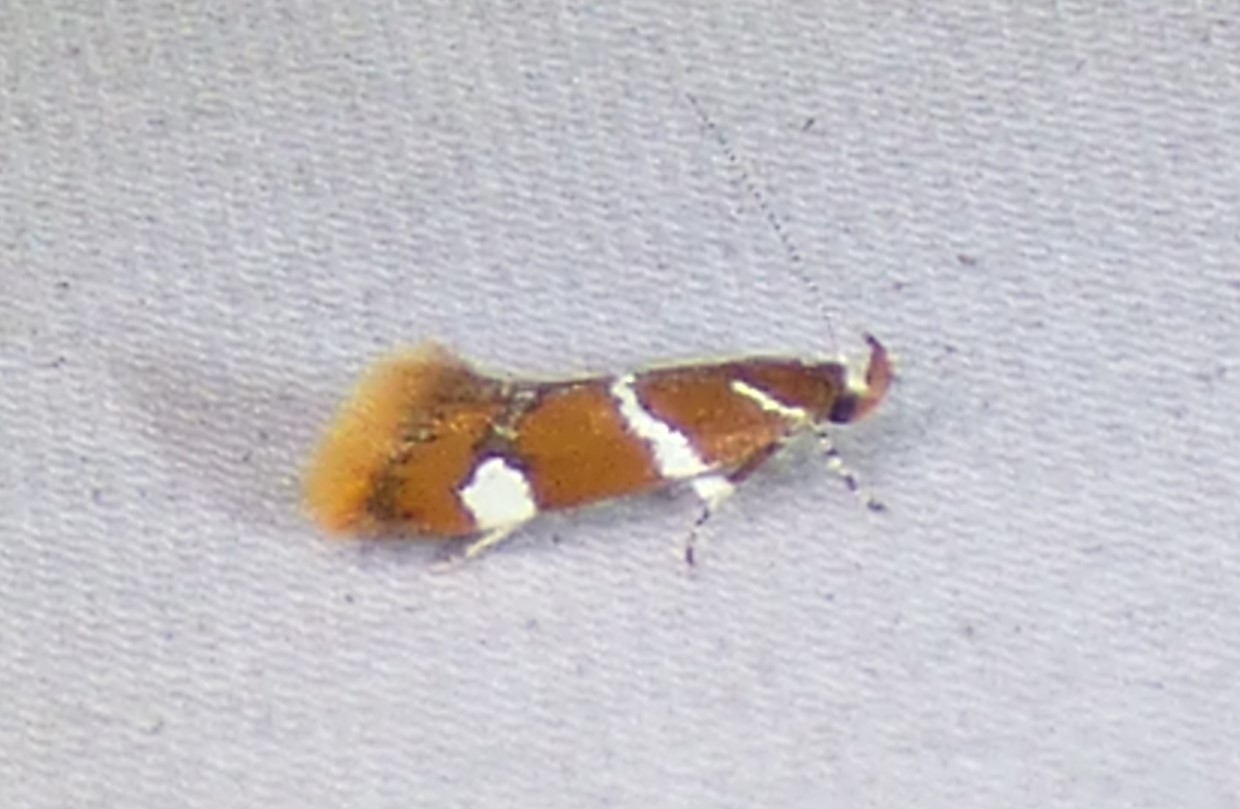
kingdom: Animalia
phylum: Arthropoda
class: Insecta
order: Lepidoptera
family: Oecophoridae
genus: Promalactis
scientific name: Promalactis suzukiella
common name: Moth
